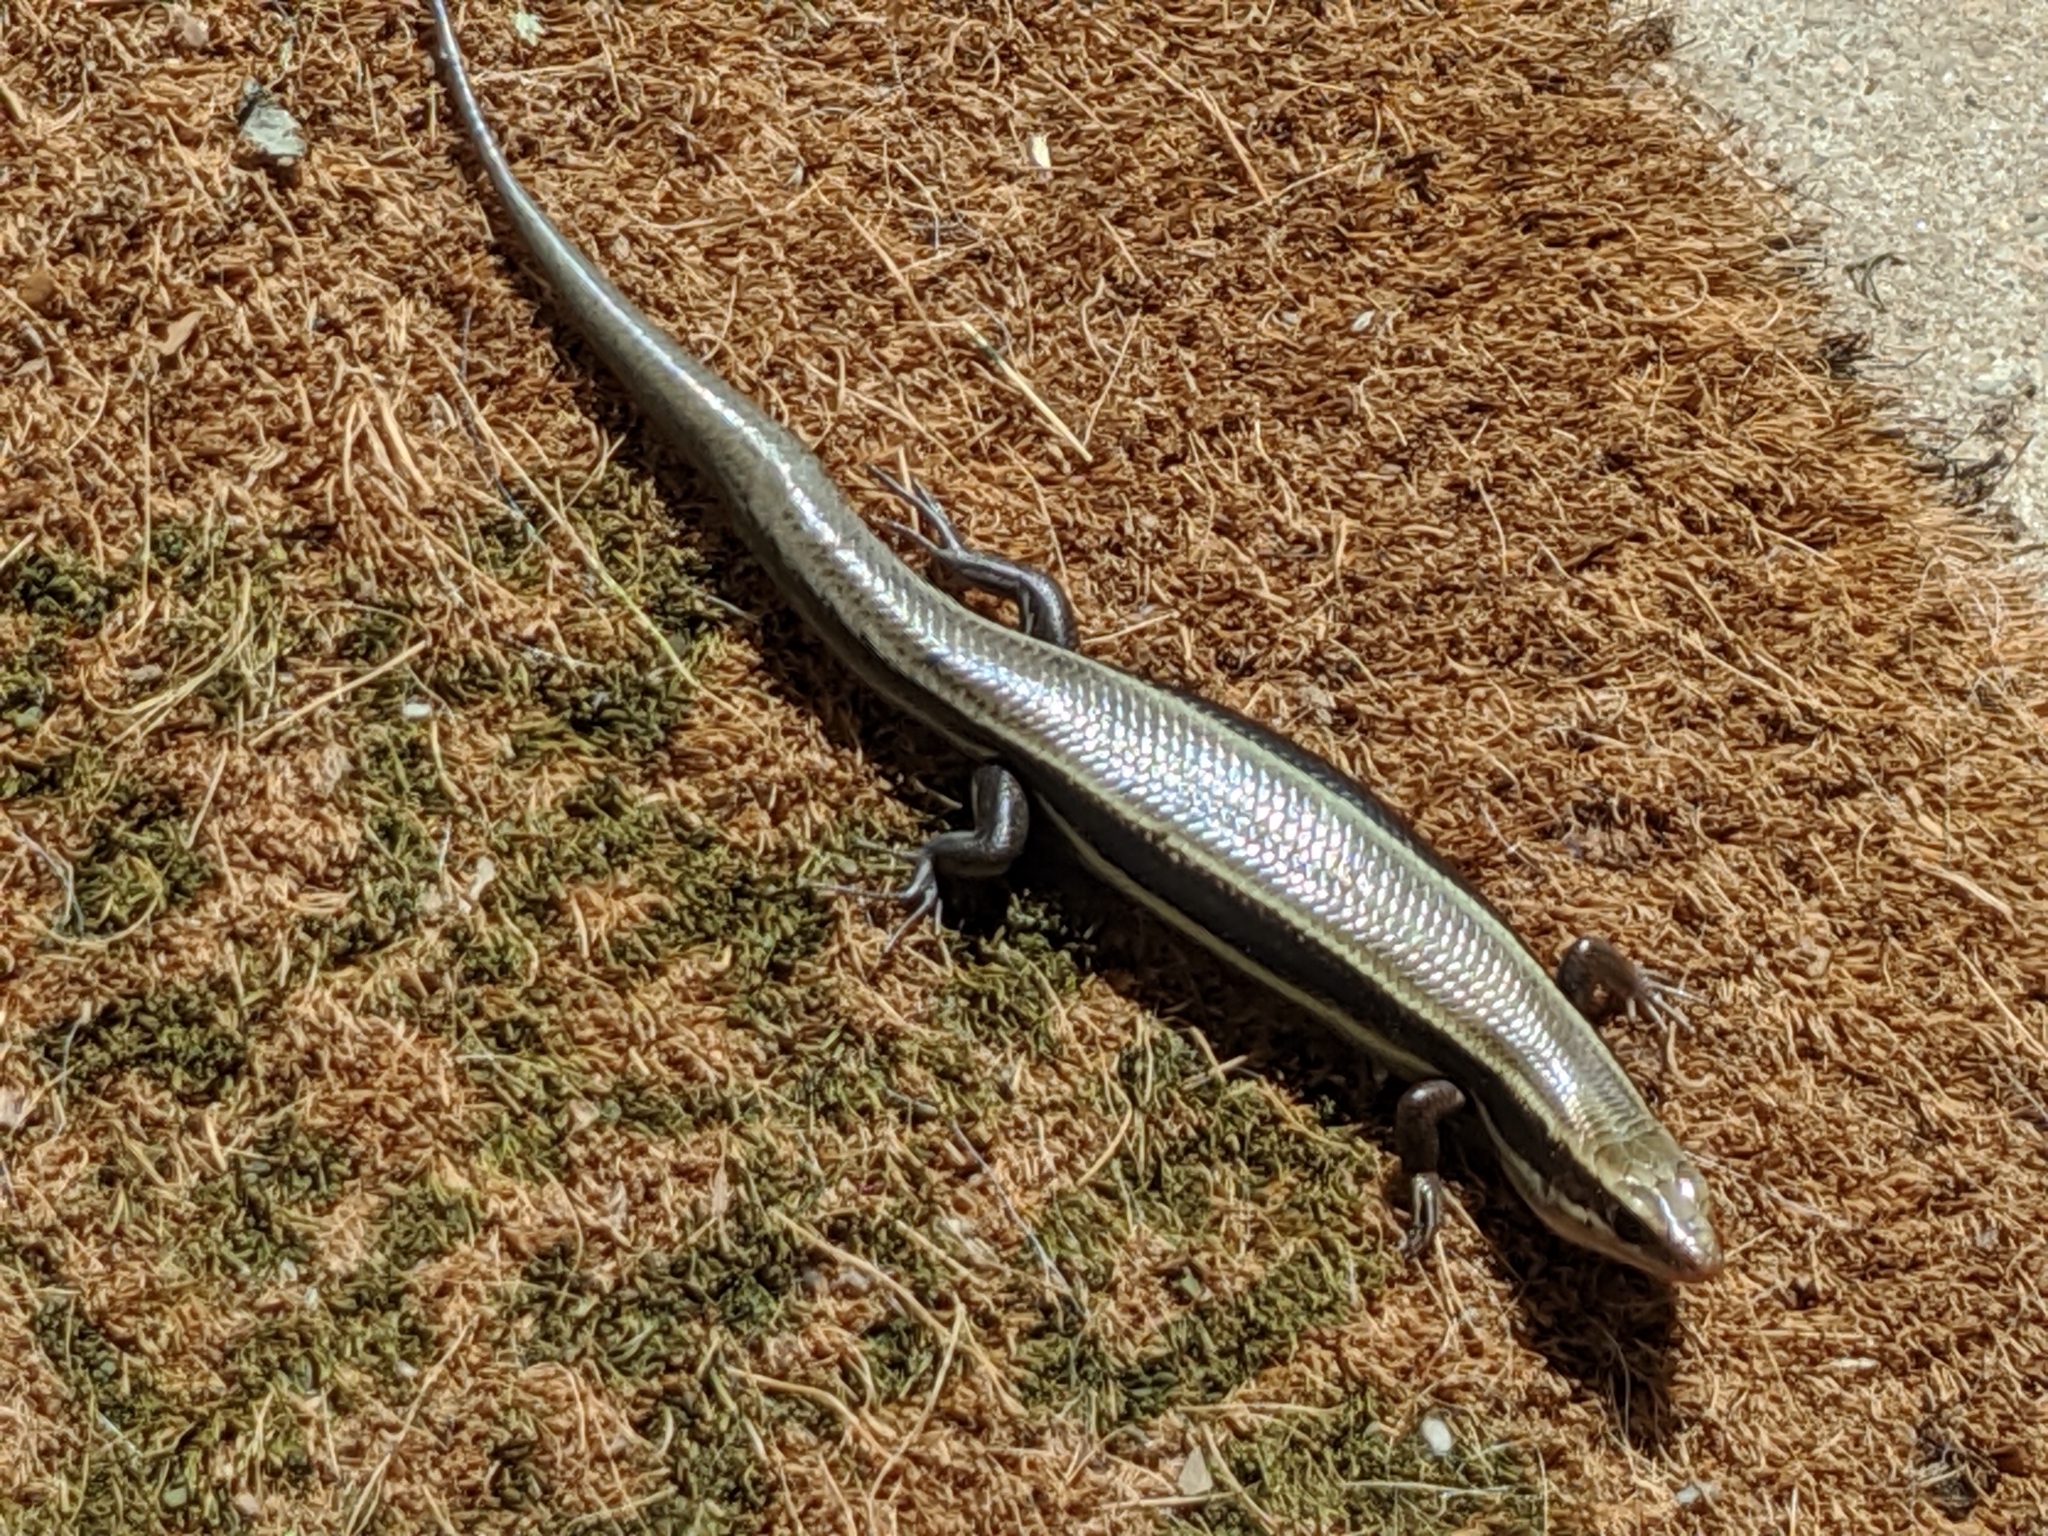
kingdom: Animalia
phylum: Chordata
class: Squamata
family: Scincidae
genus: Plestiodon
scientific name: Plestiodon fasciatus
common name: Five-lined skink
